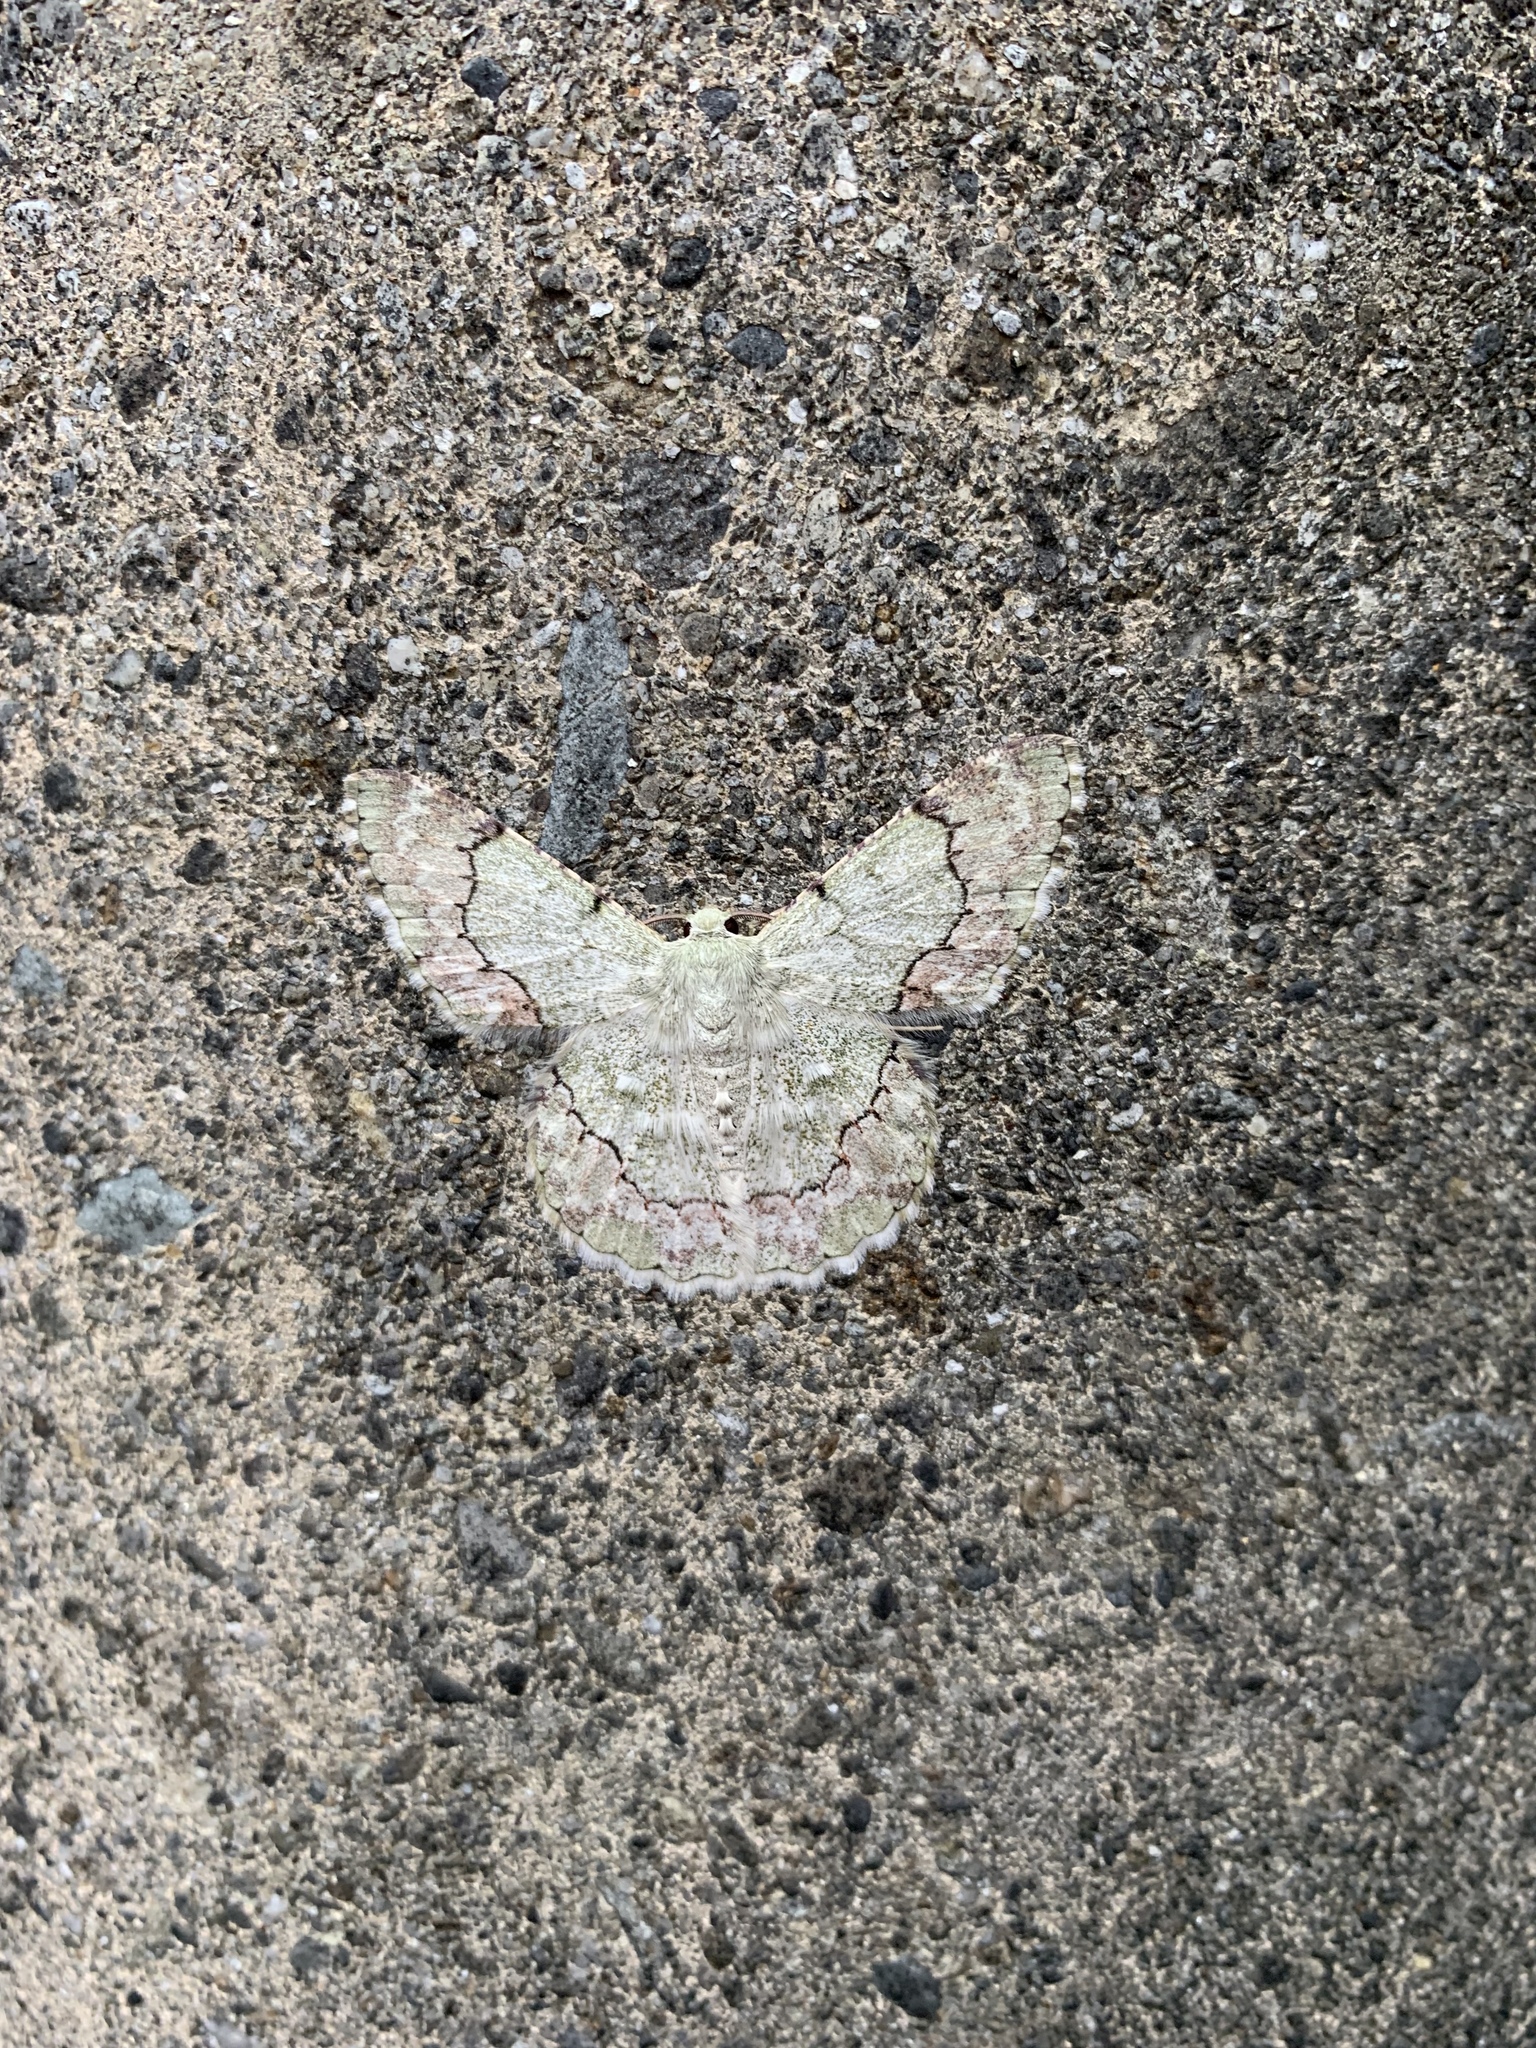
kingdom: Animalia
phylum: Arthropoda
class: Insecta
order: Lepidoptera
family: Geometridae
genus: Pingasa
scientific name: Pingasa ruginaria
